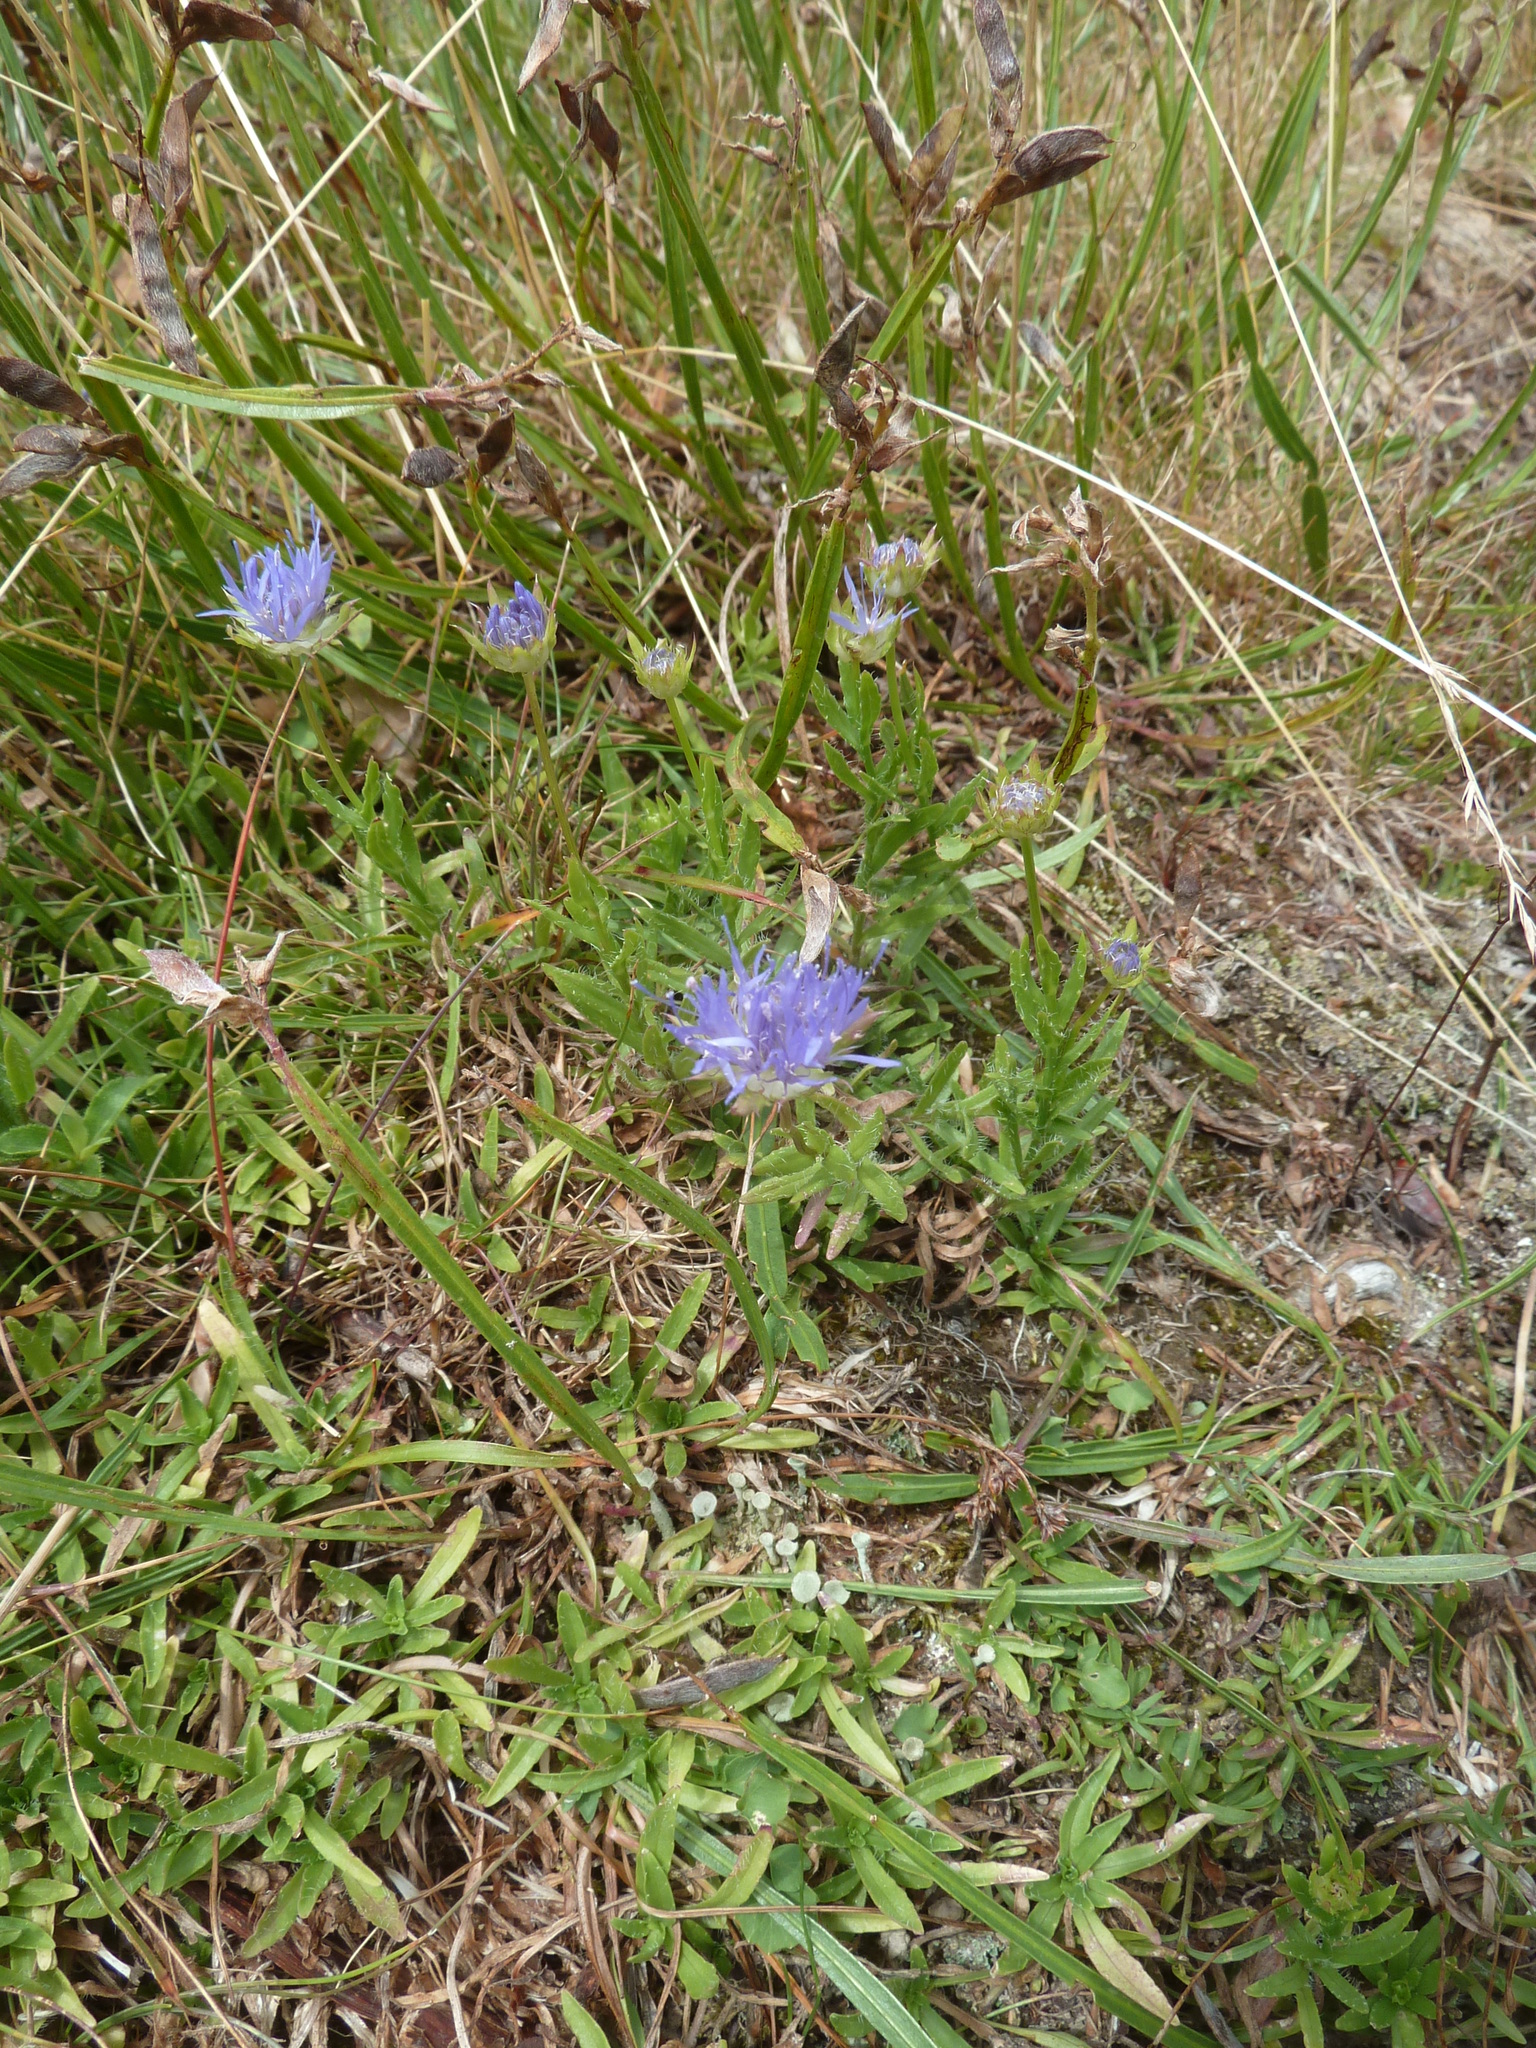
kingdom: Plantae
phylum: Tracheophyta
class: Magnoliopsida
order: Asterales
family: Campanulaceae
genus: Jasione
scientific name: Jasione laevis
